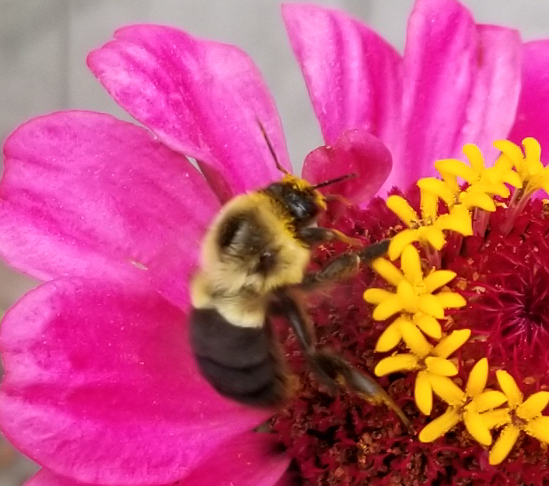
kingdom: Animalia
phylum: Arthropoda
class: Insecta
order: Hymenoptera
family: Apidae
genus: Bombus
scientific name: Bombus impatiens
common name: Common eastern bumble bee
